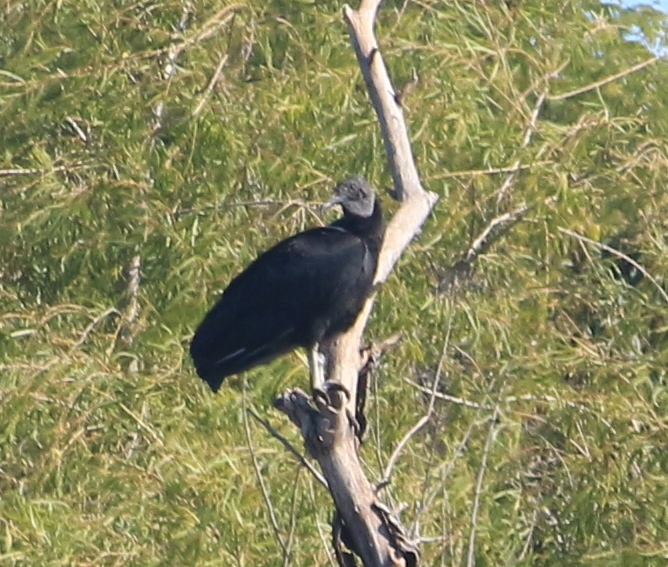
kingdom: Animalia
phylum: Chordata
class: Aves
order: Accipitriformes
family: Cathartidae
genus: Coragyps
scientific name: Coragyps atratus
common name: Black vulture
